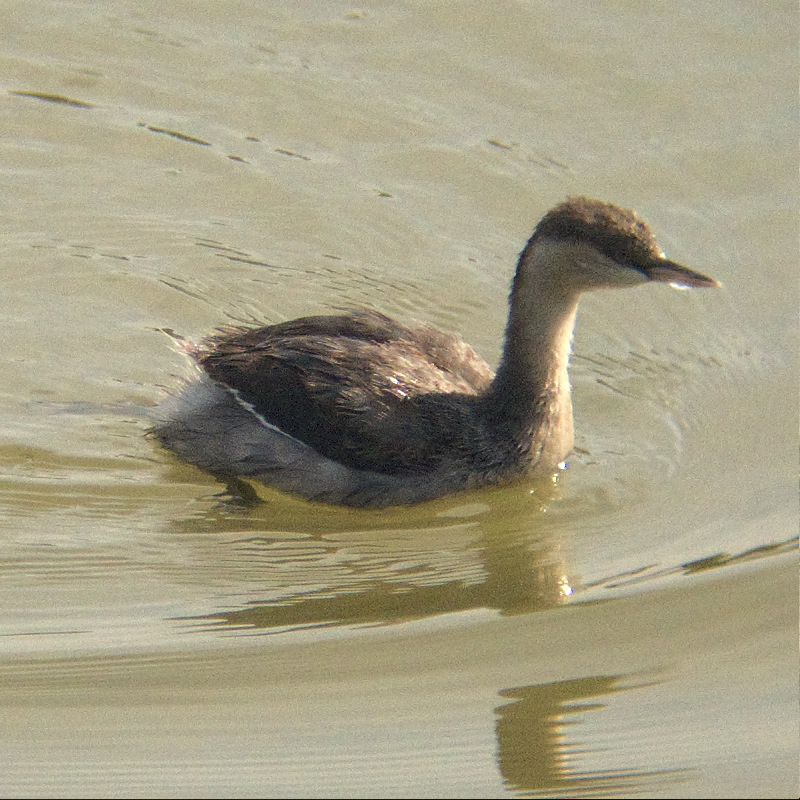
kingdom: Animalia
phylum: Chordata
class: Aves
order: Podicipediformes
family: Podicipedidae
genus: Tachybaptus
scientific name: Tachybaptus novaehollandiae
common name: Australasian grebe
